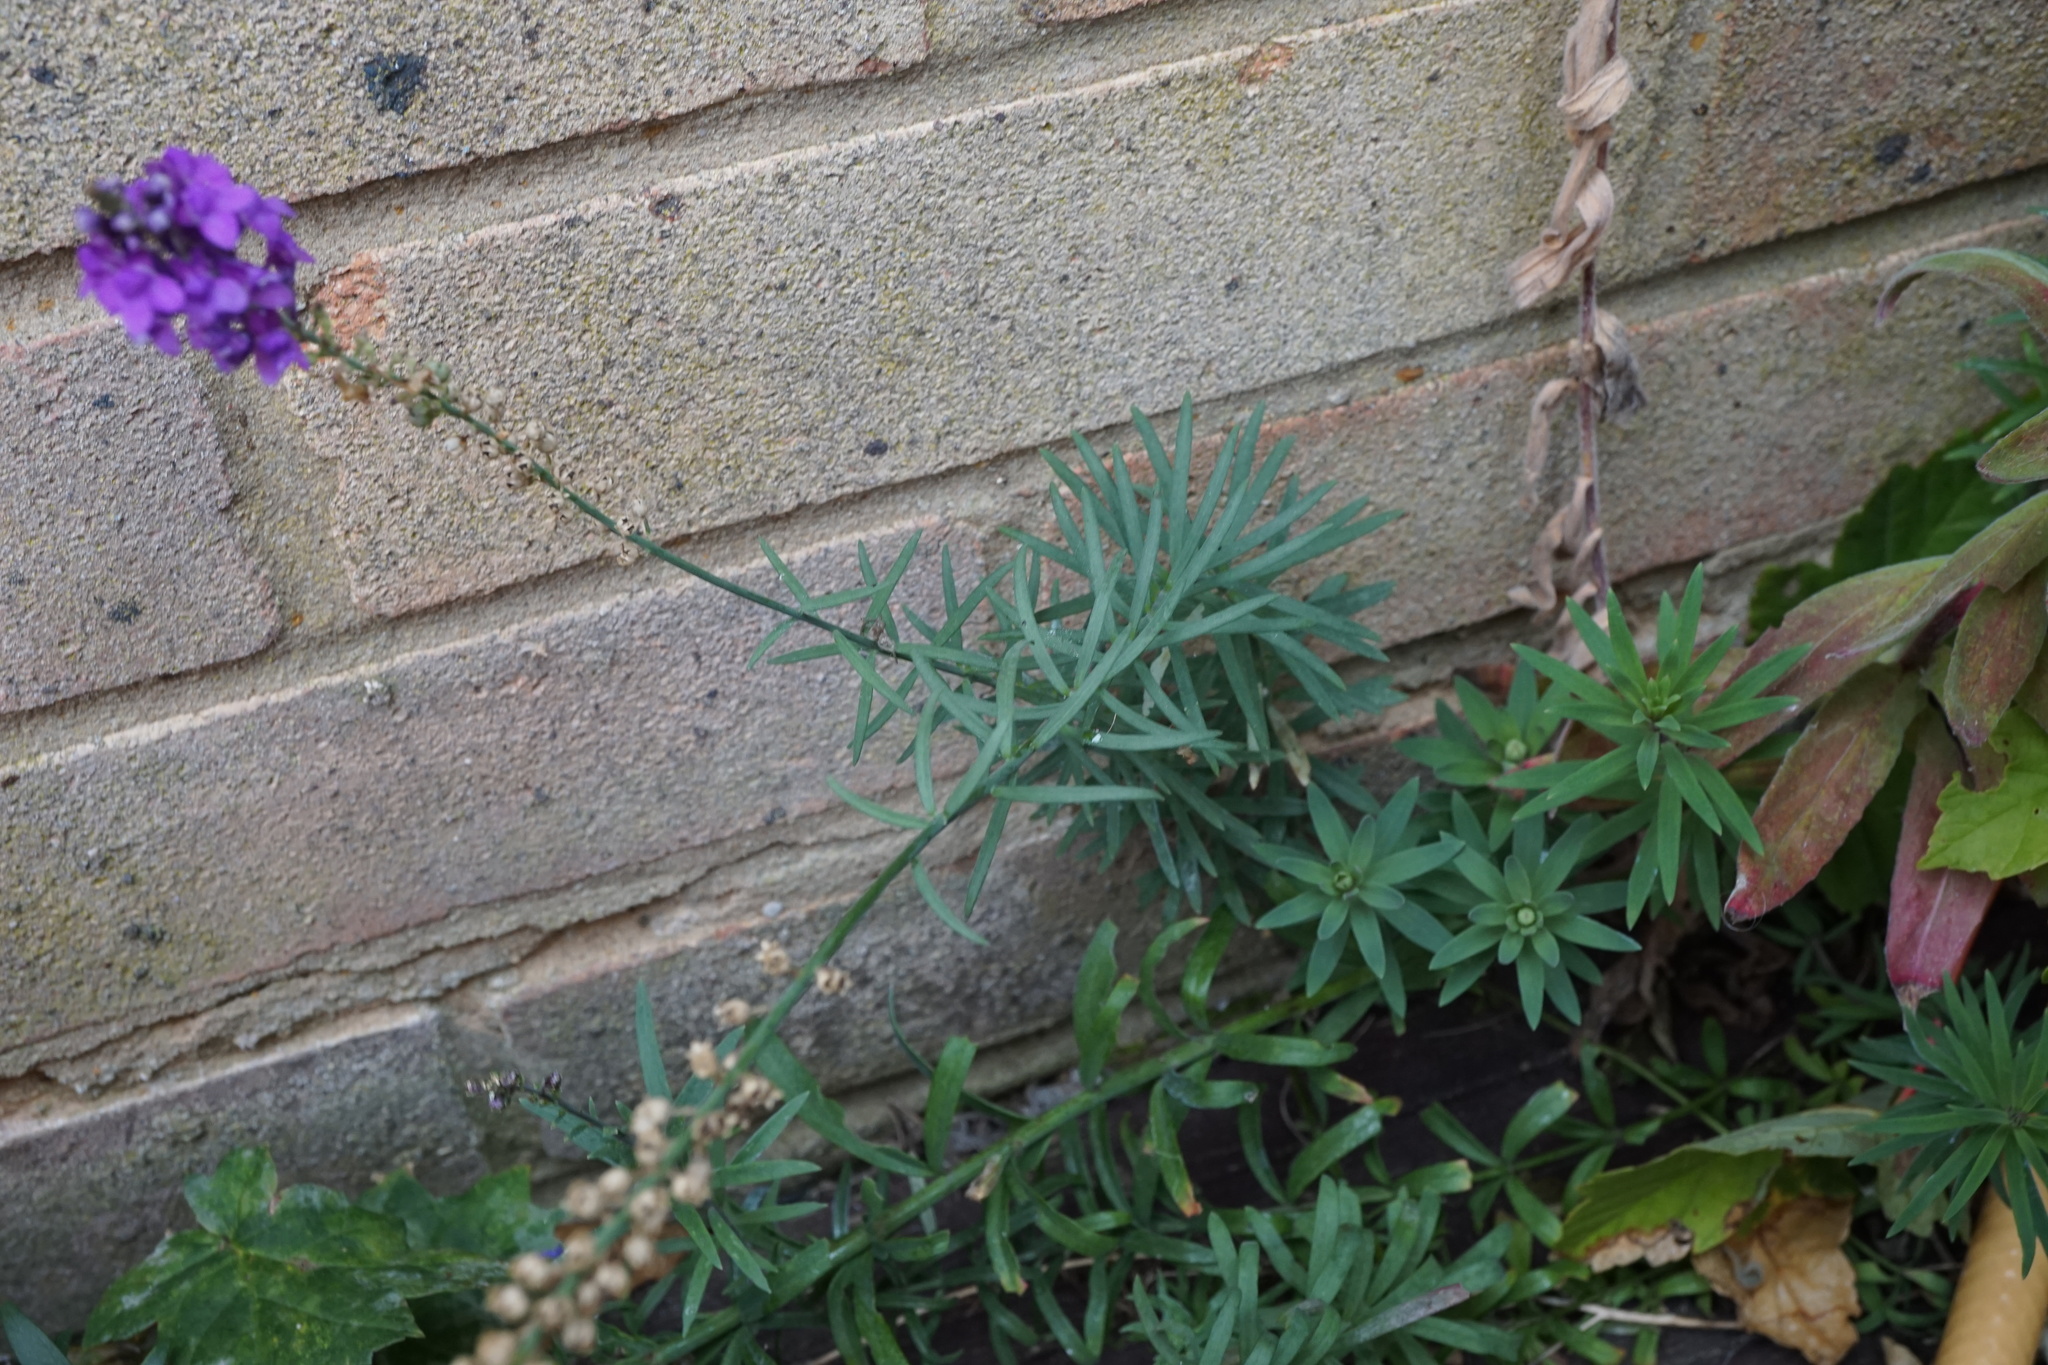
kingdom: Plantae
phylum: Tracheophyta
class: Magnoliopsida
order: Lamiales
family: Plantaginaceae
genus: Linaria
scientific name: Linaria purpurea
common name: Purple toadflax
